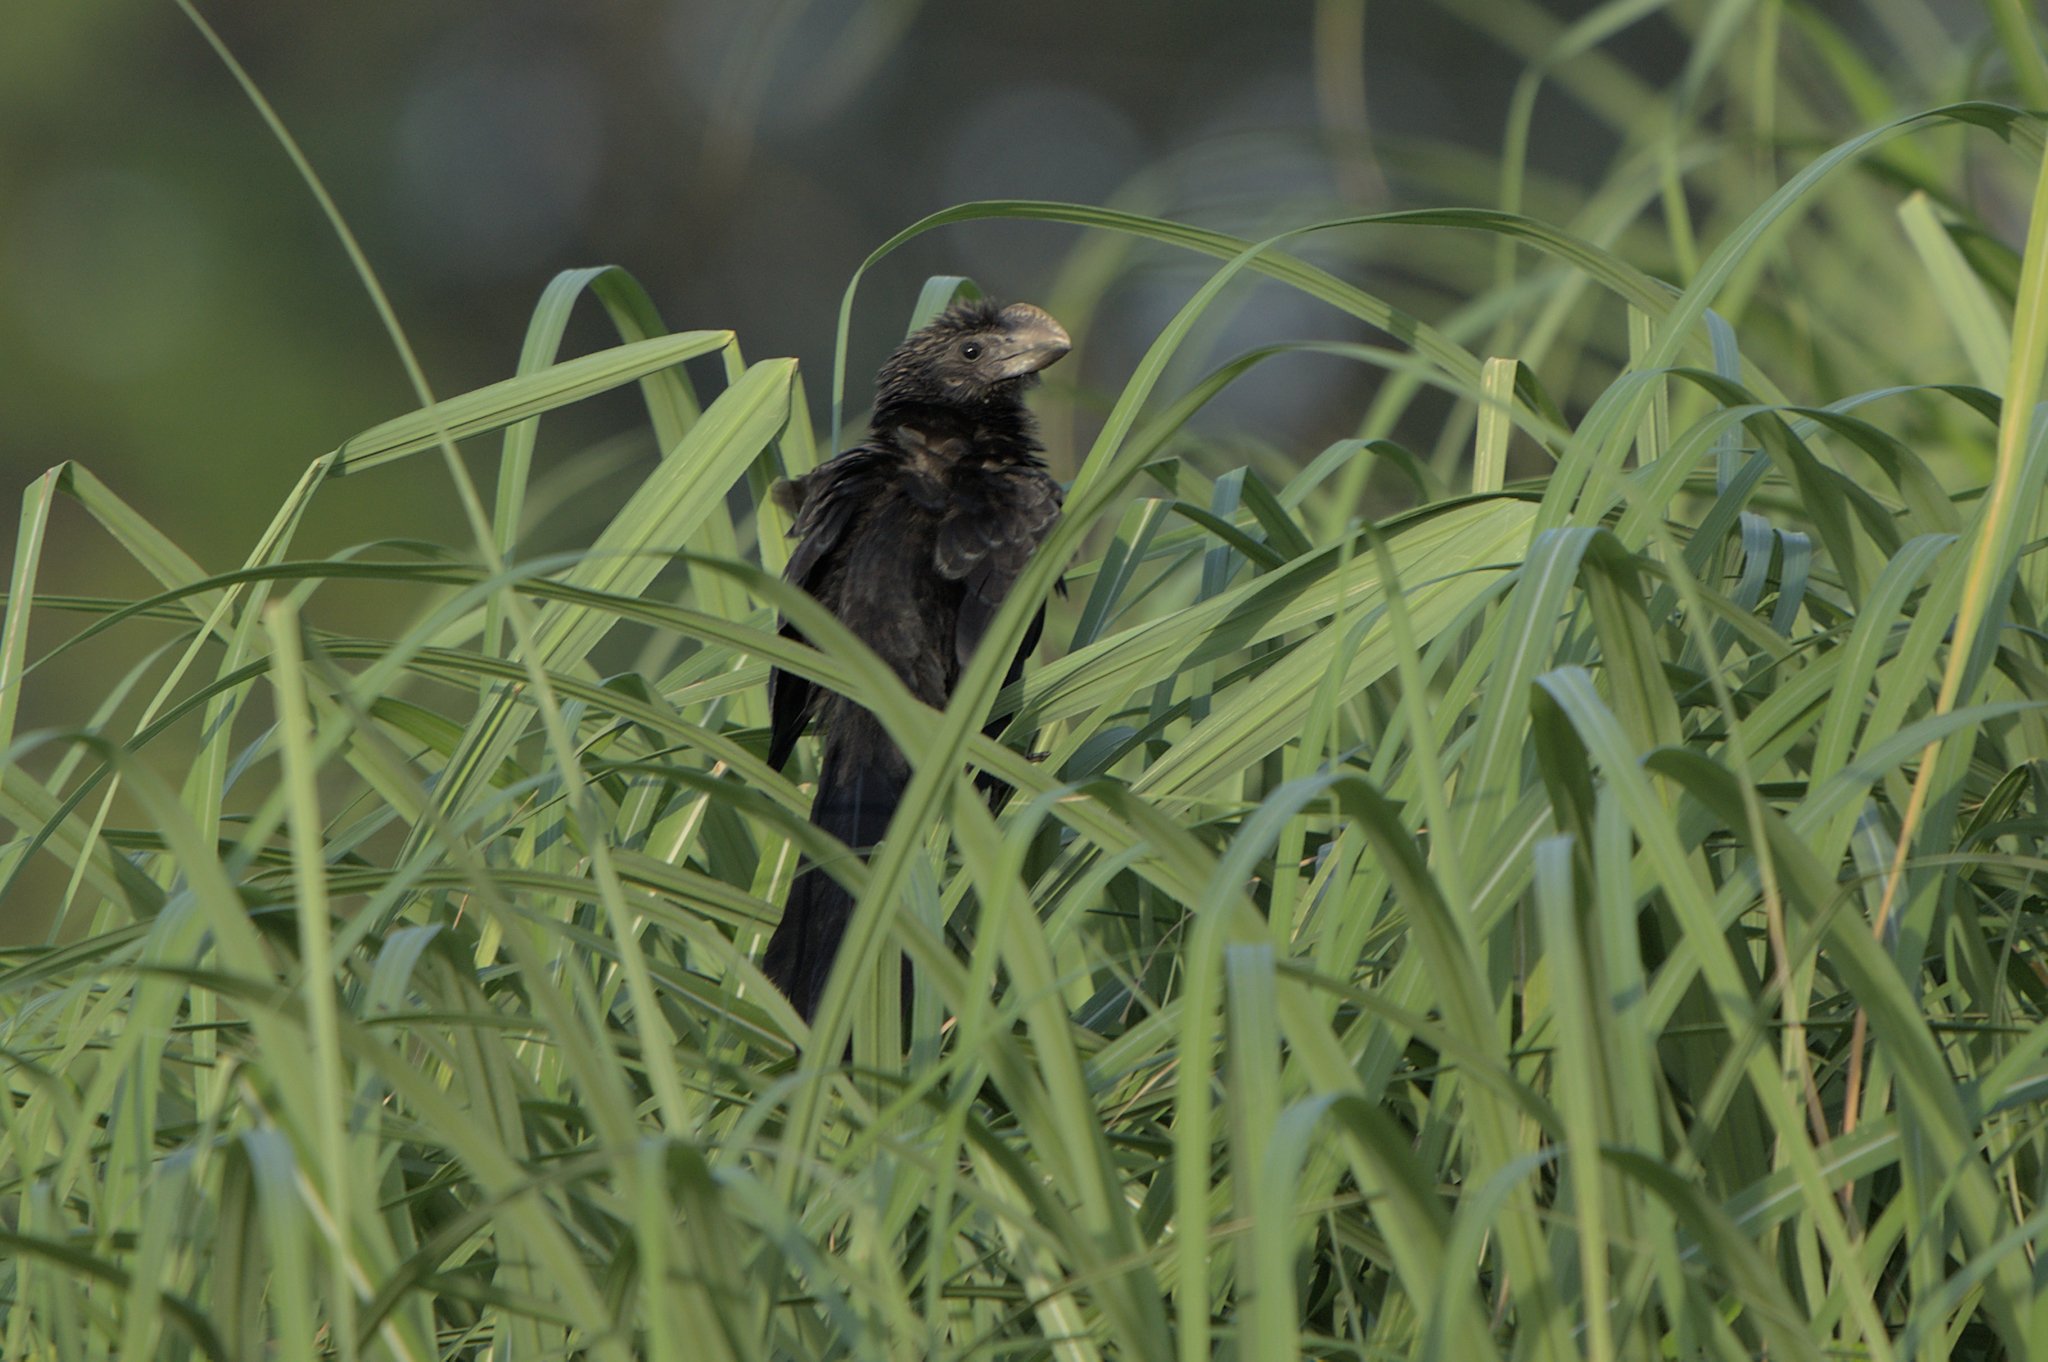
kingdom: Animalia
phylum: Chordata
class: Aves
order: Cuculiformes
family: Cuculidae
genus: Crotophaga
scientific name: Crotophaga ani
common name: Smooth-billed ani
